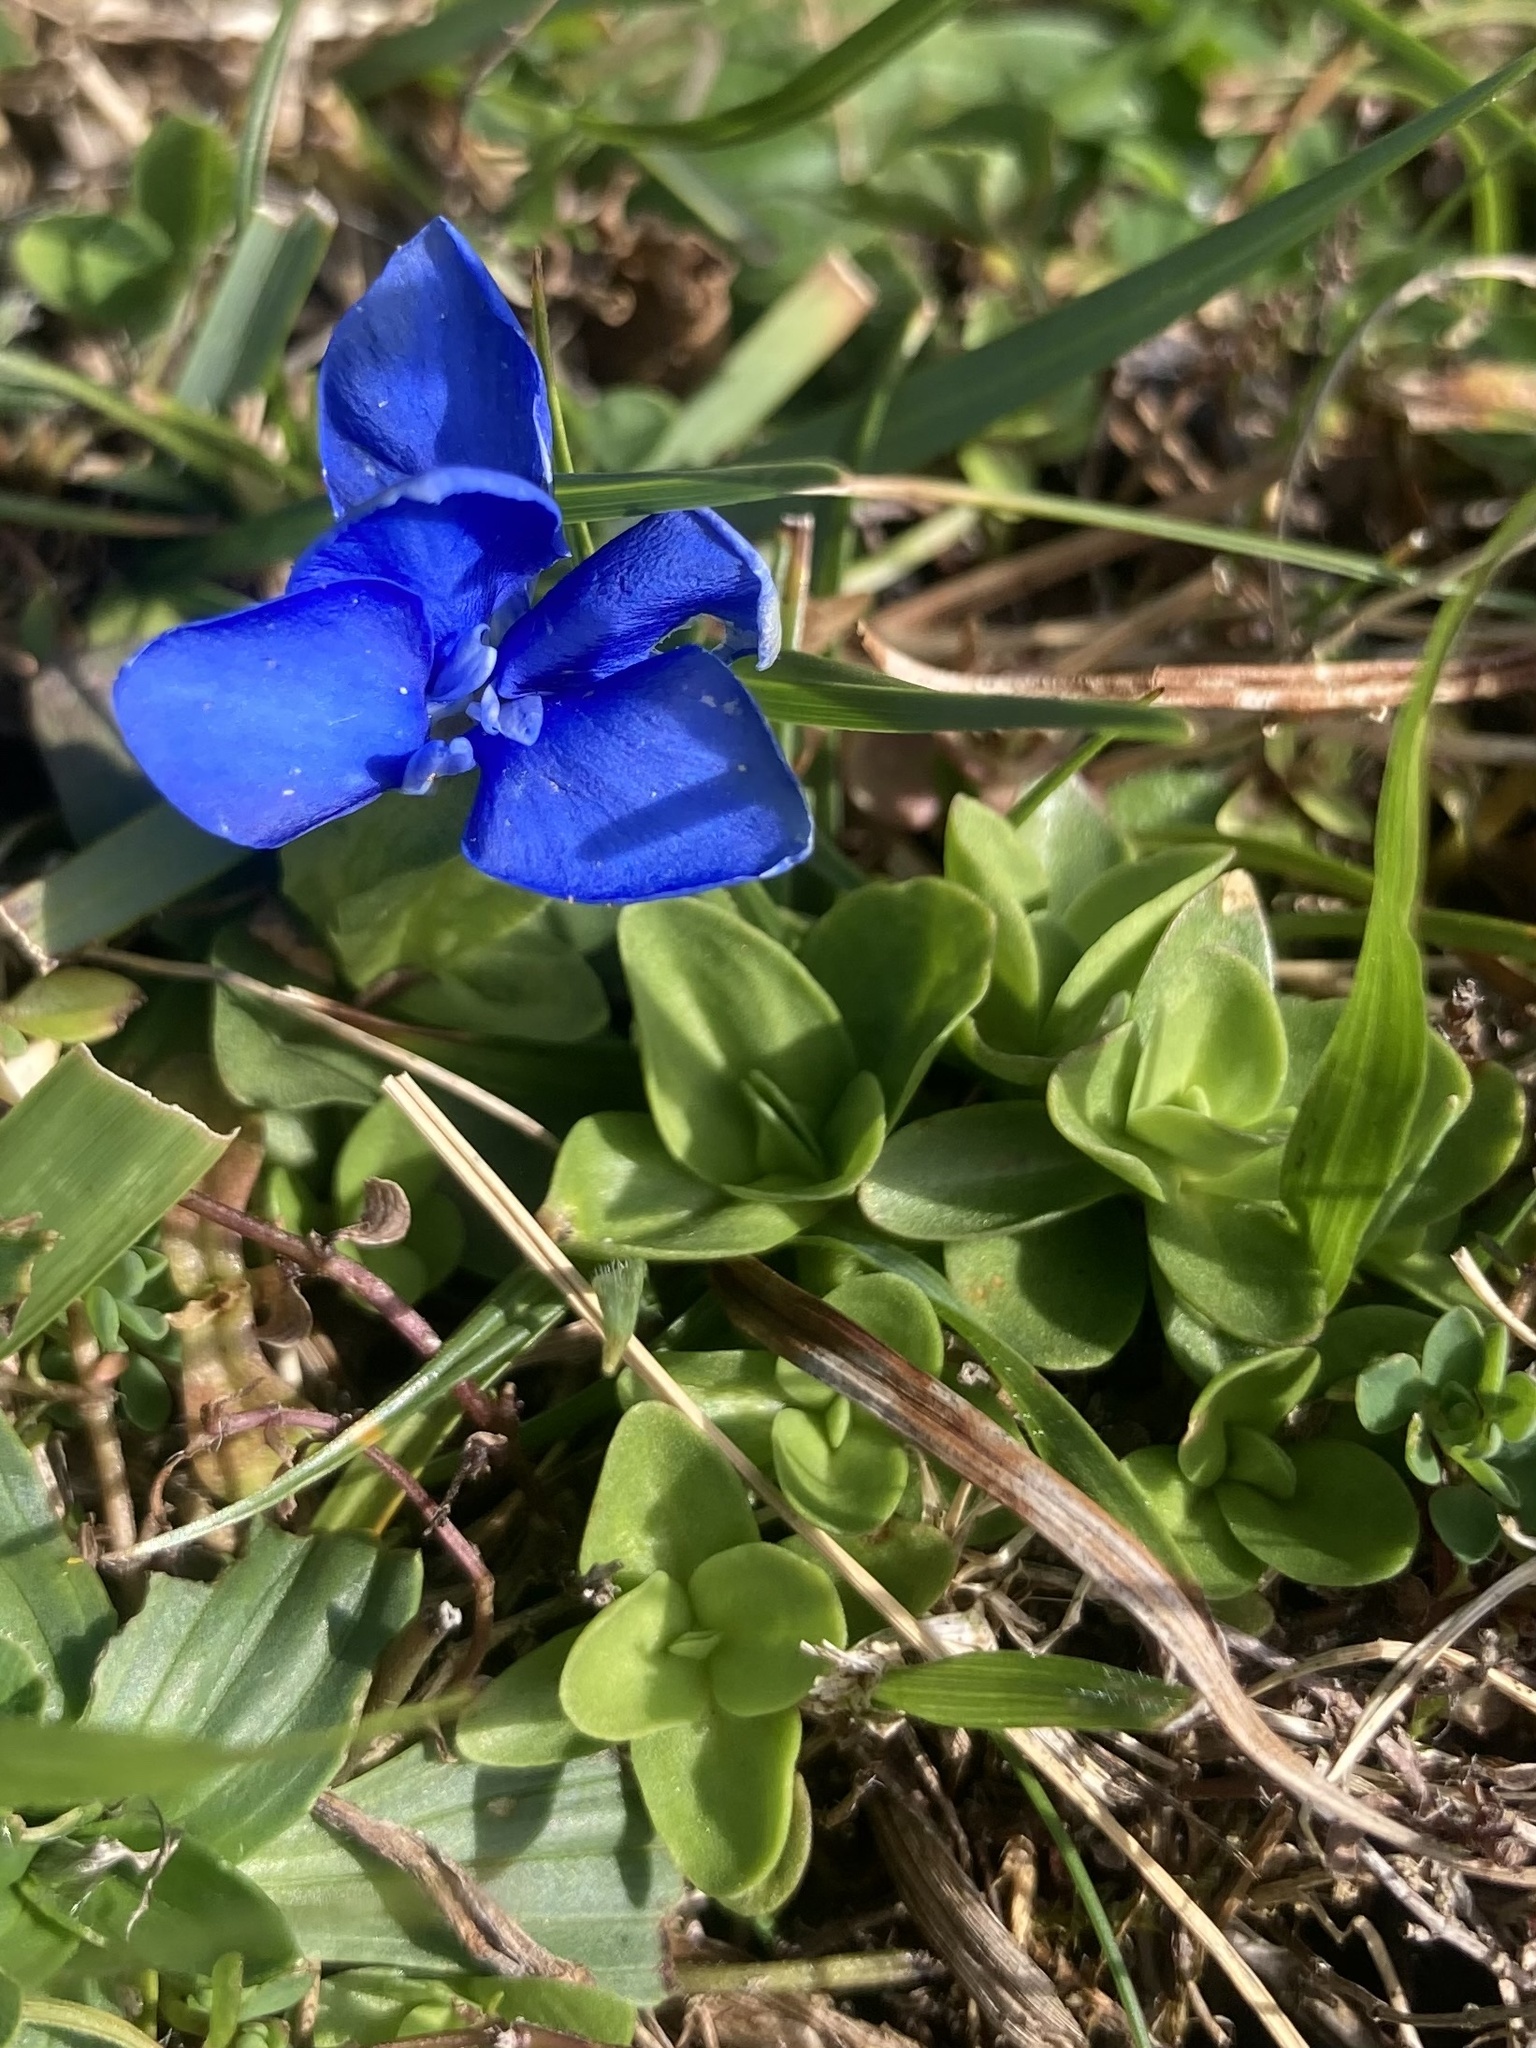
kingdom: Plantae
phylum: Tracheophyta
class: Magnoliopsida
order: Gentianales
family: Gentianaceae
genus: Gentiana
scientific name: Gentiana verna
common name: Spring gentian
